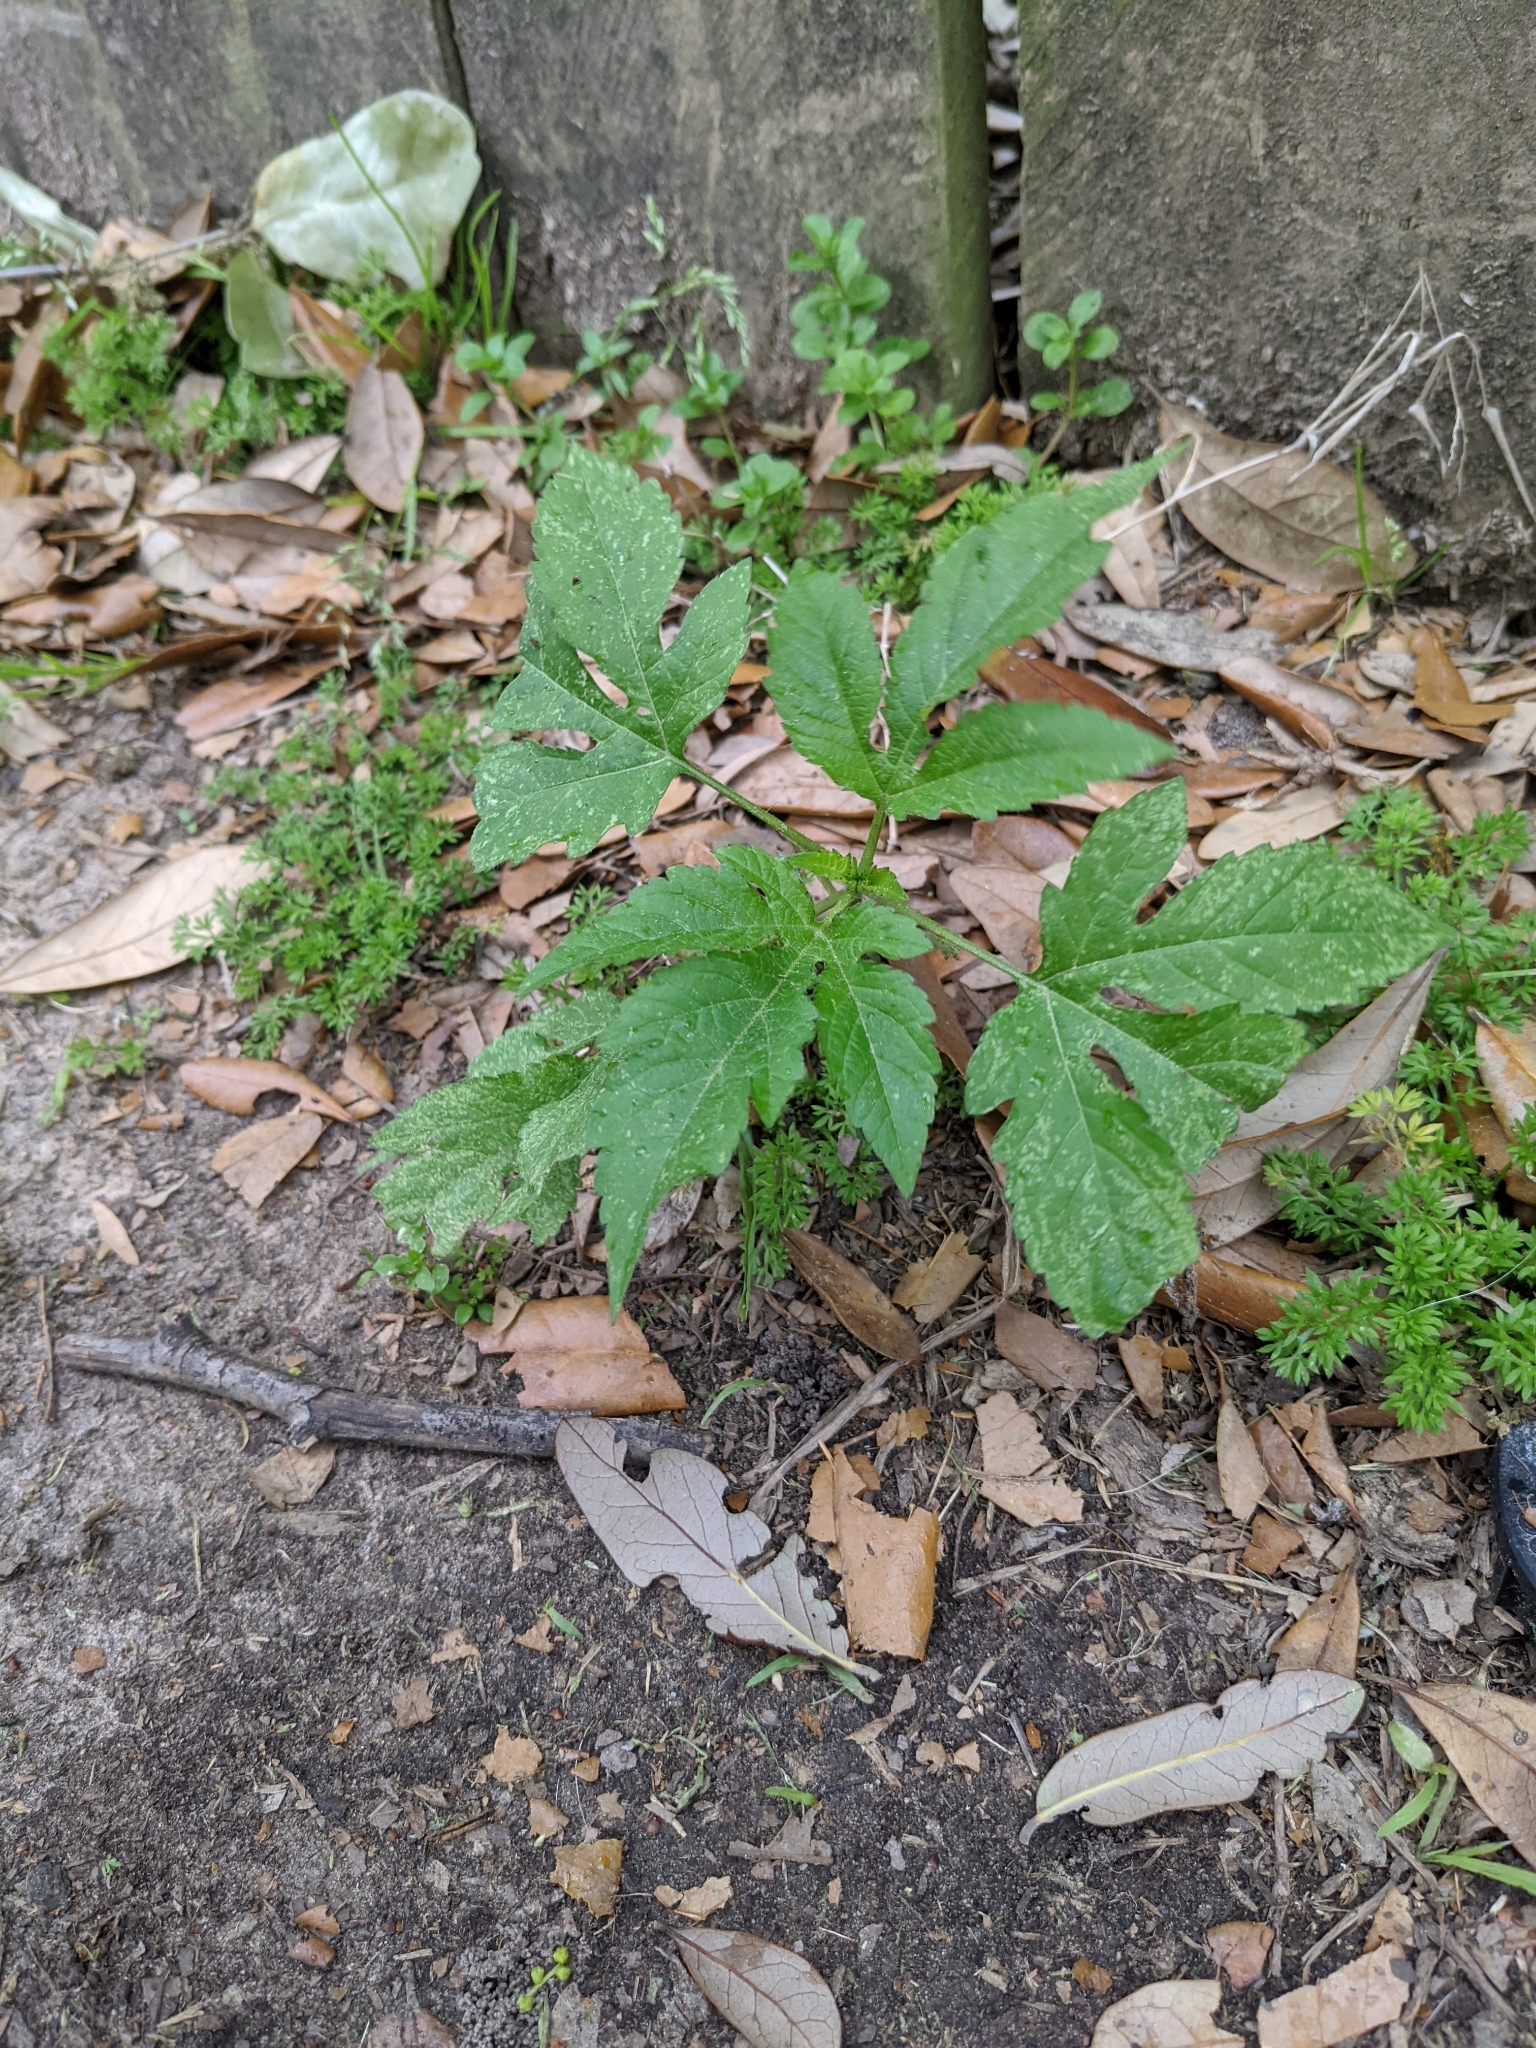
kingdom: Plantae
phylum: Tracheophyta
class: Magnoliopsida
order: Asterales
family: Asteraceae
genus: Ambrosia
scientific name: Ambrosia trifida
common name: Giant ragweed
